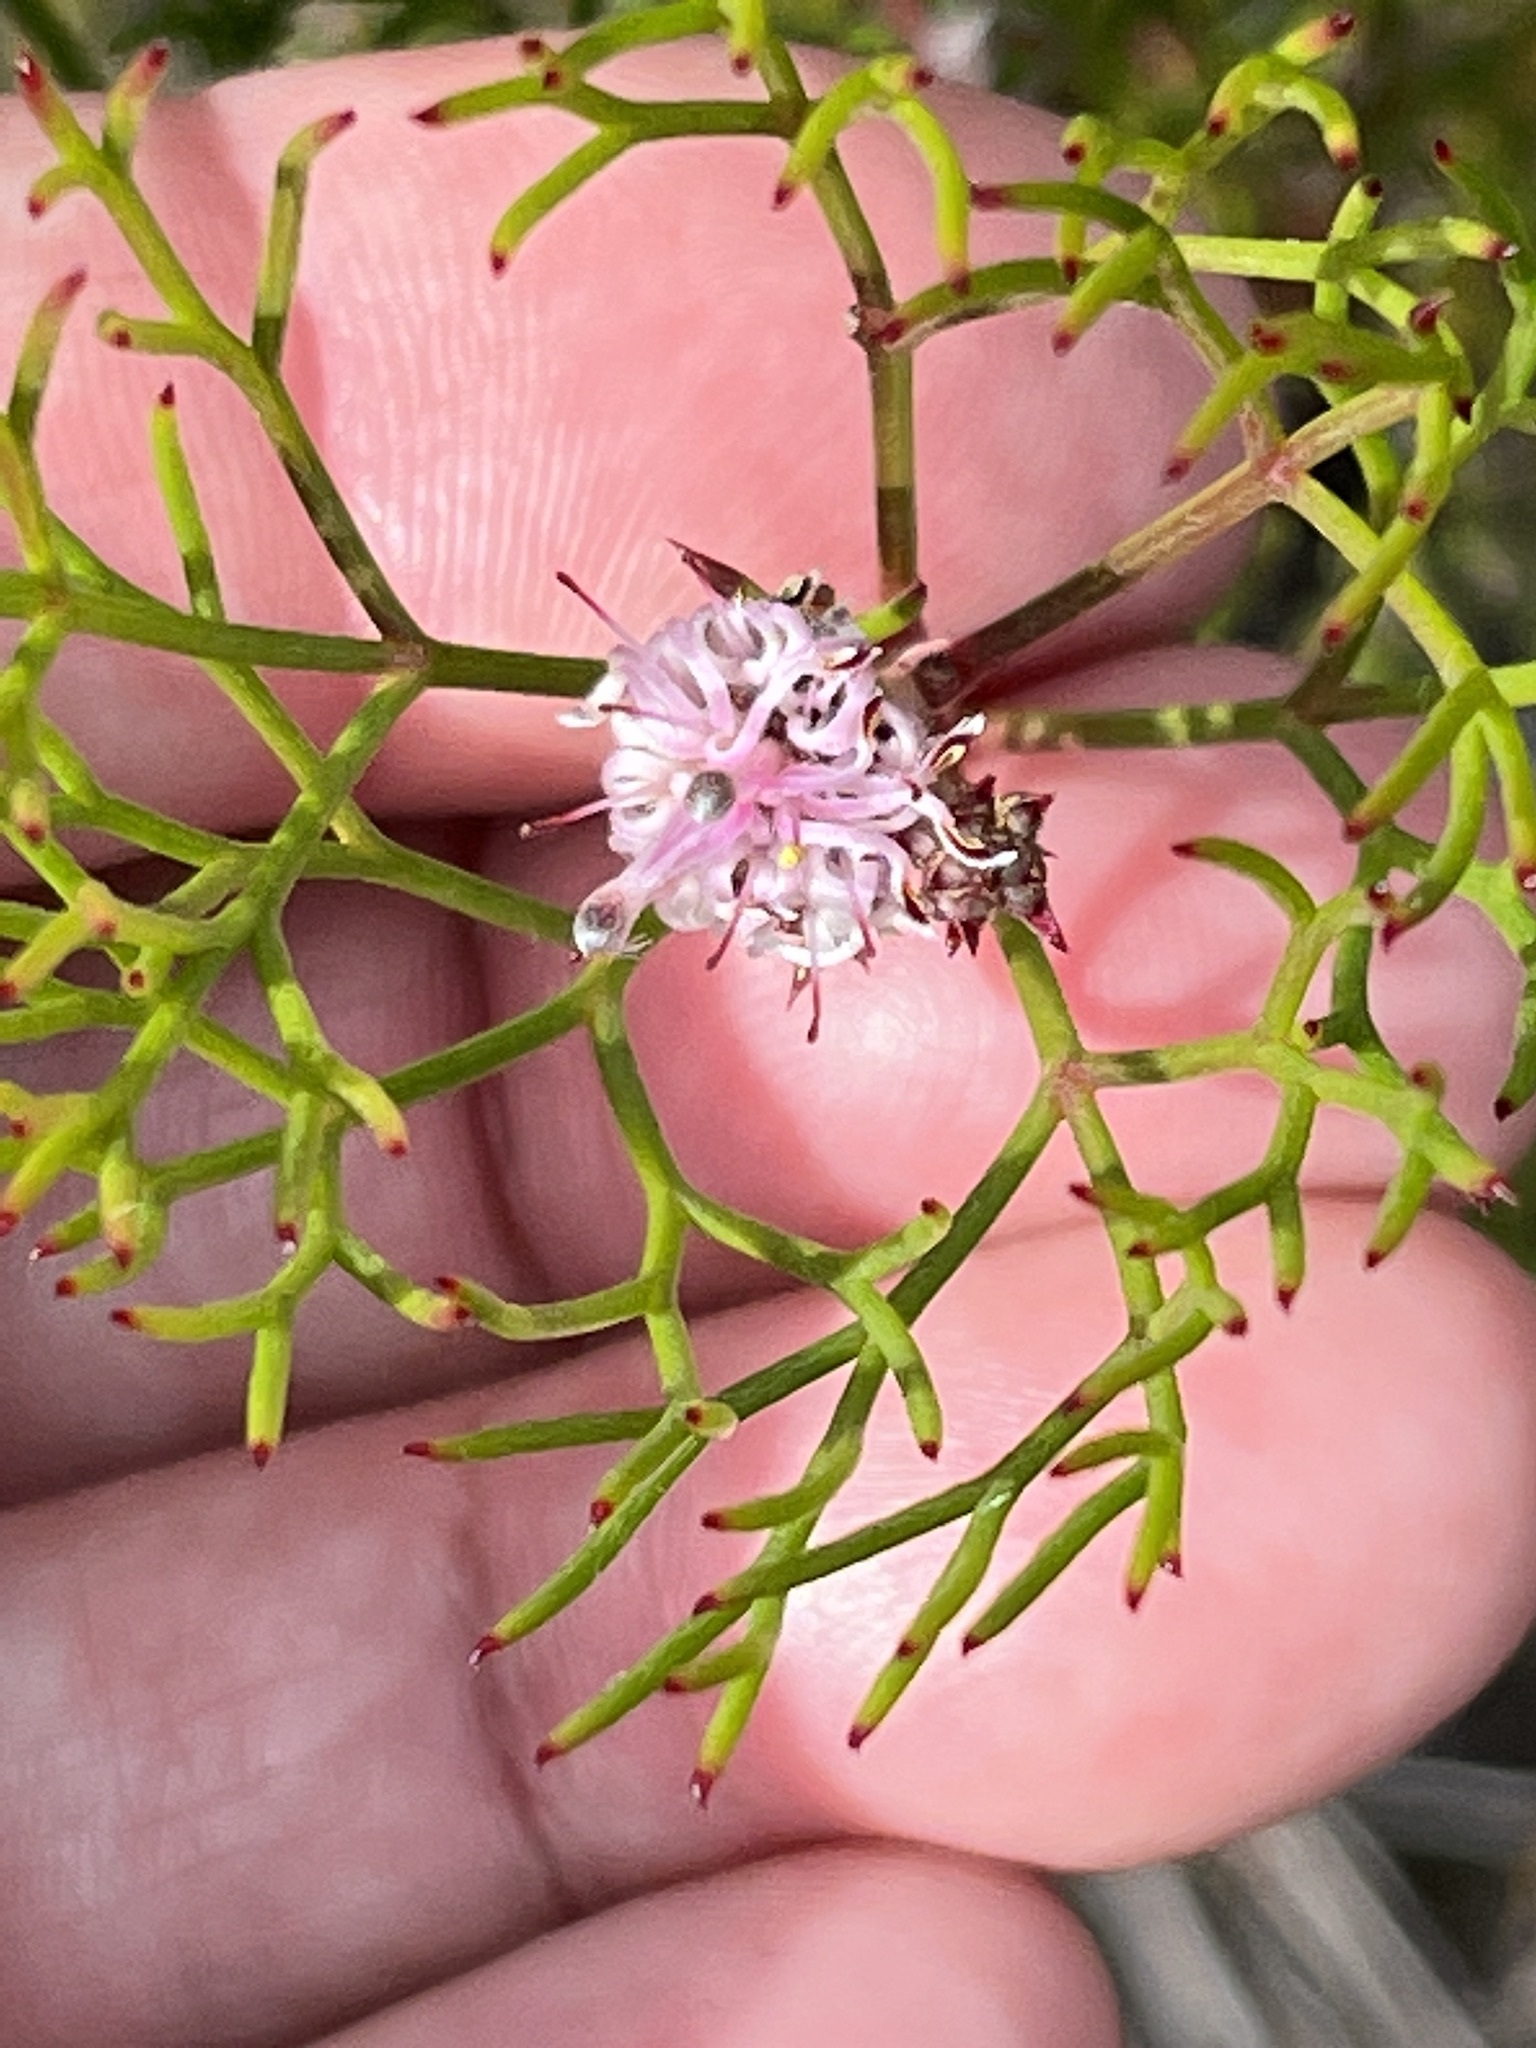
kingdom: Plantae
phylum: Tracheophyta
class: Magnoliopsida
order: Proteales
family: Proteaceae
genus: Serruria
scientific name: Serruria fasciflora
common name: Common pin spiderhead
